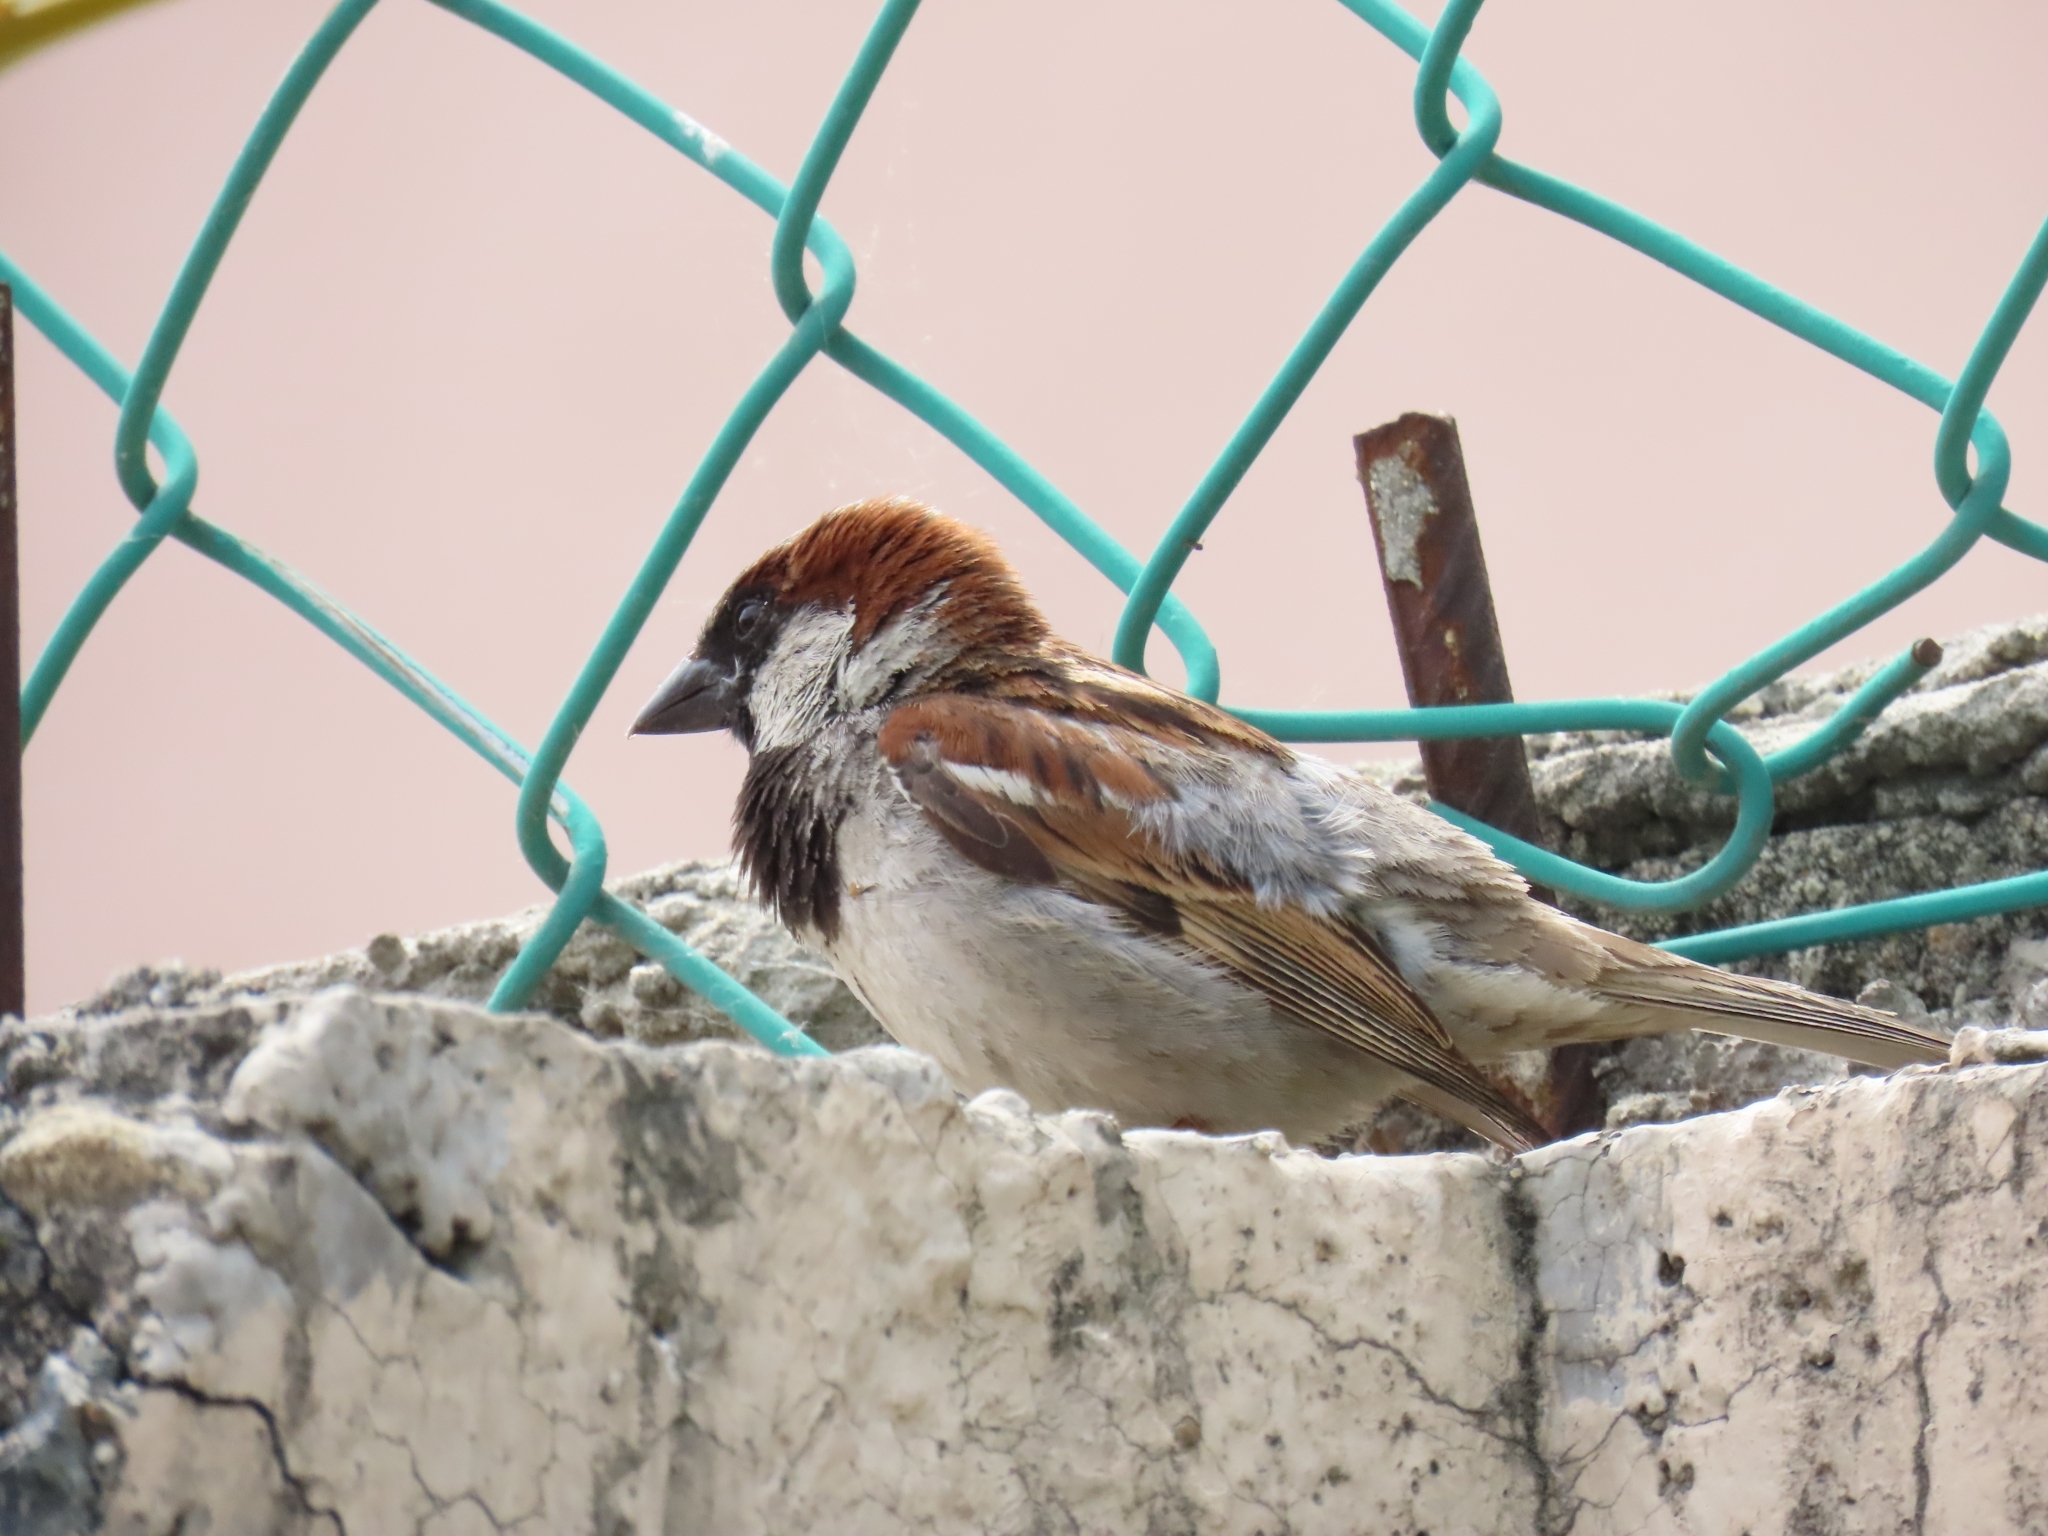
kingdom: Animalia
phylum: Chordata
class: Aves
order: Passeriformes
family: Passeridae
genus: Passer
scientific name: Passer domesticus
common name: House sparrow
